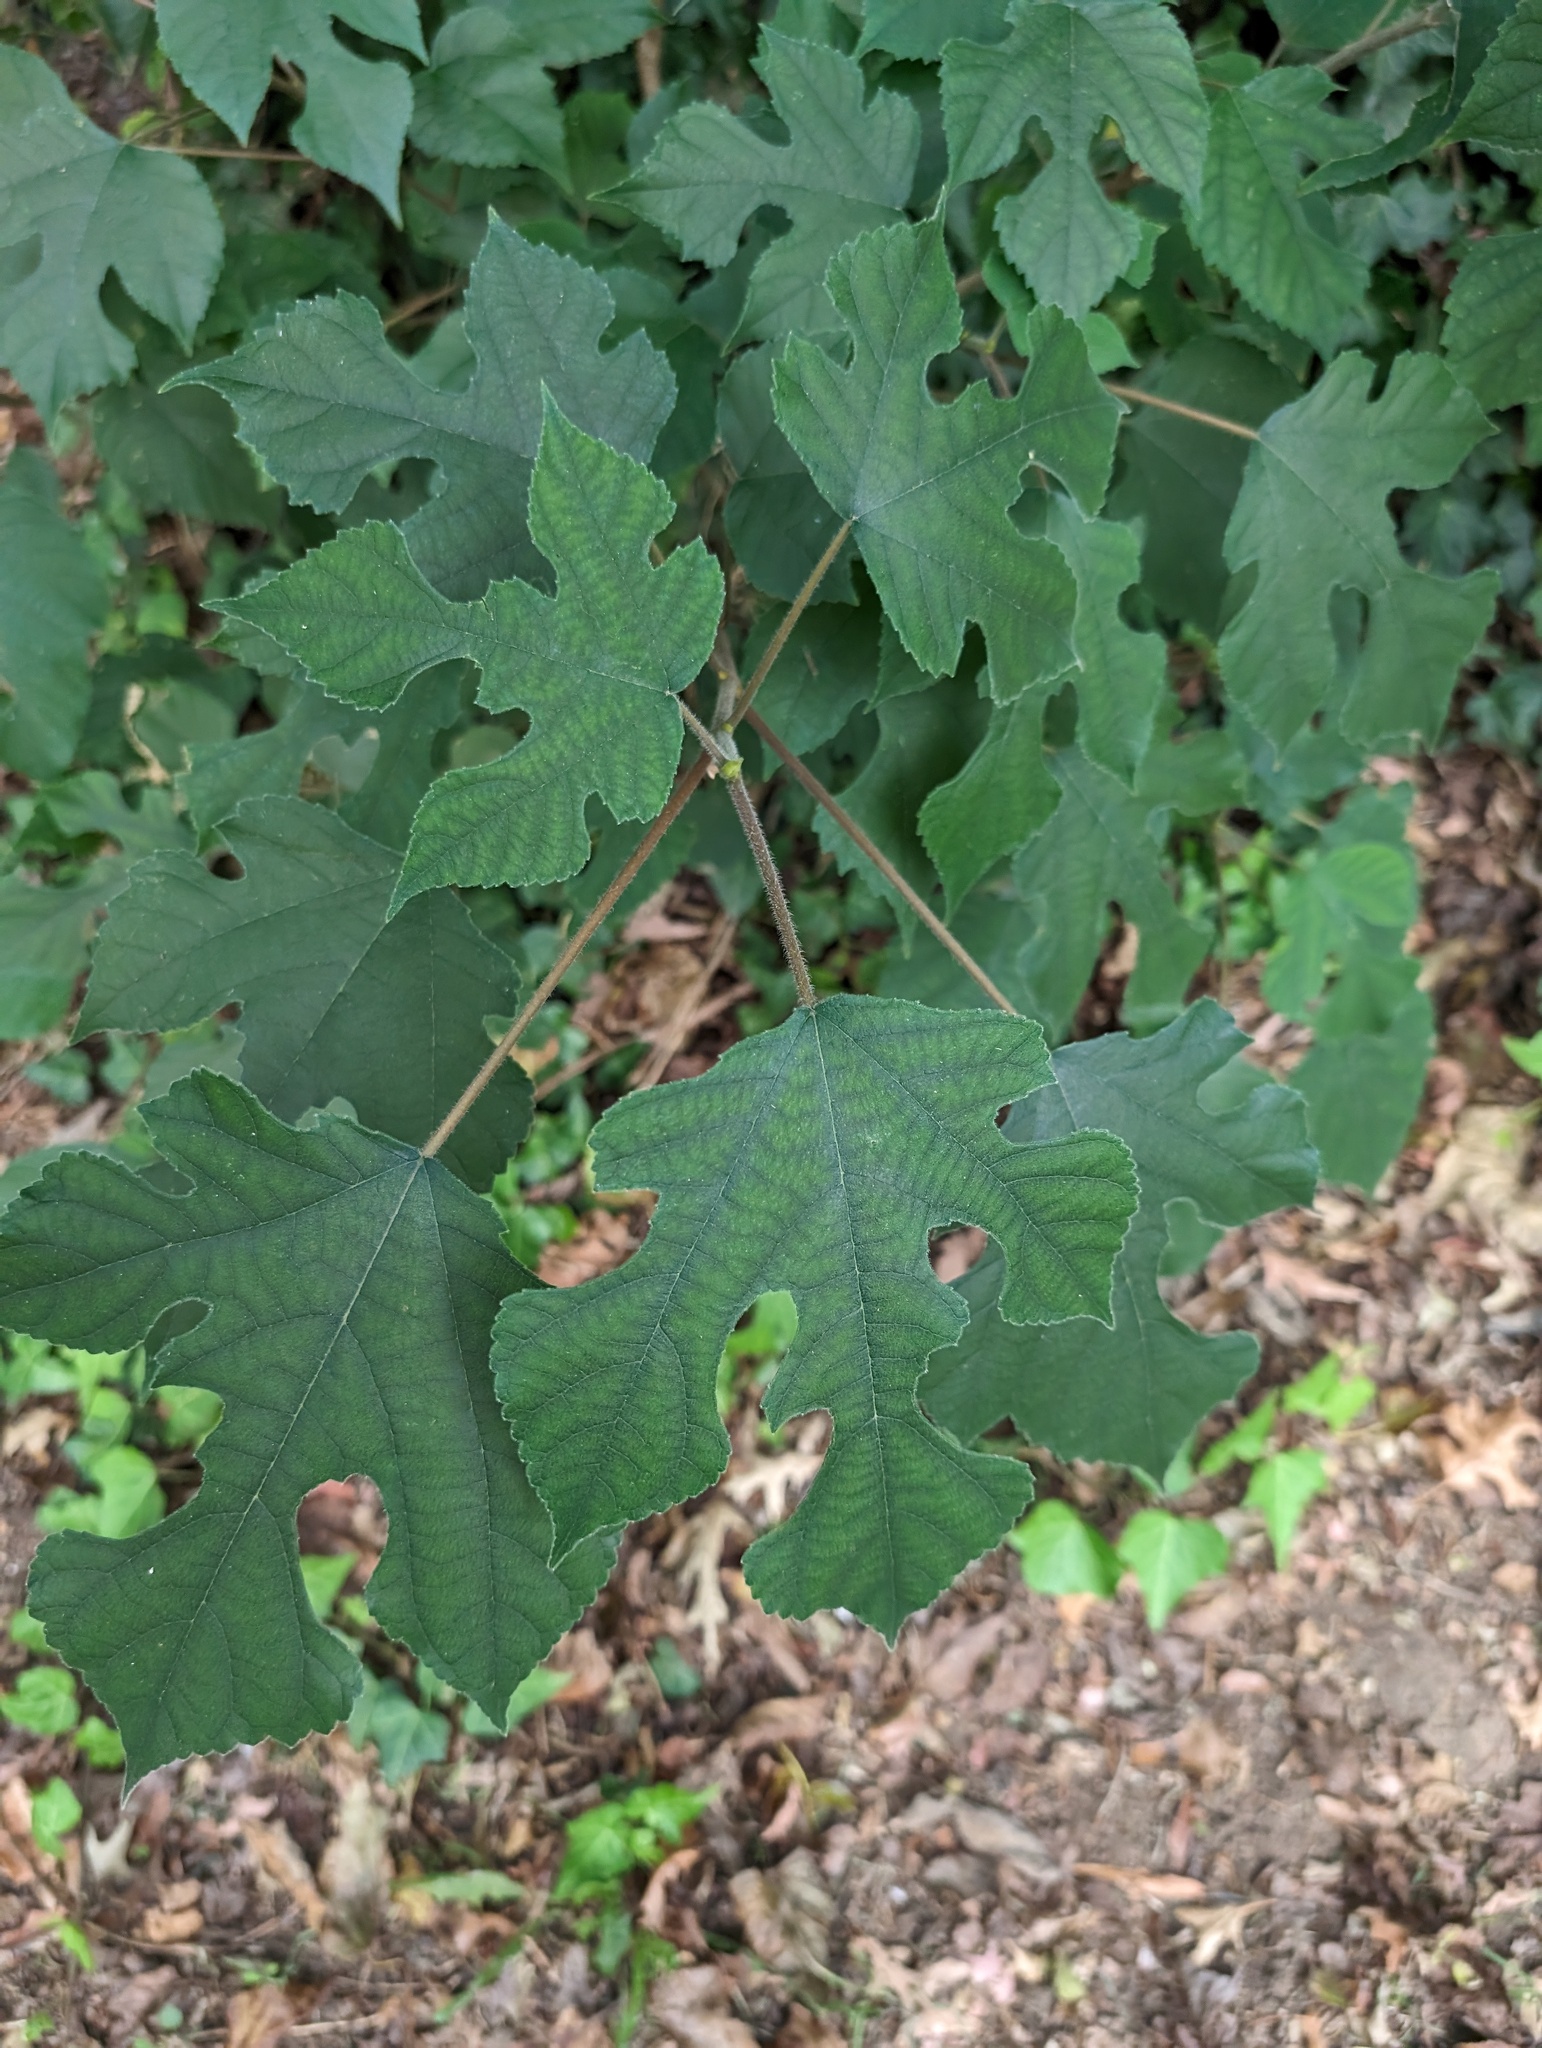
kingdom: Plantae
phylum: Tracheophyta
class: Magnoliopsida
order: Rosales
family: Moraceae
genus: Broussonetia
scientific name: Broussonetia papyrifera
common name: Paper mulberry
